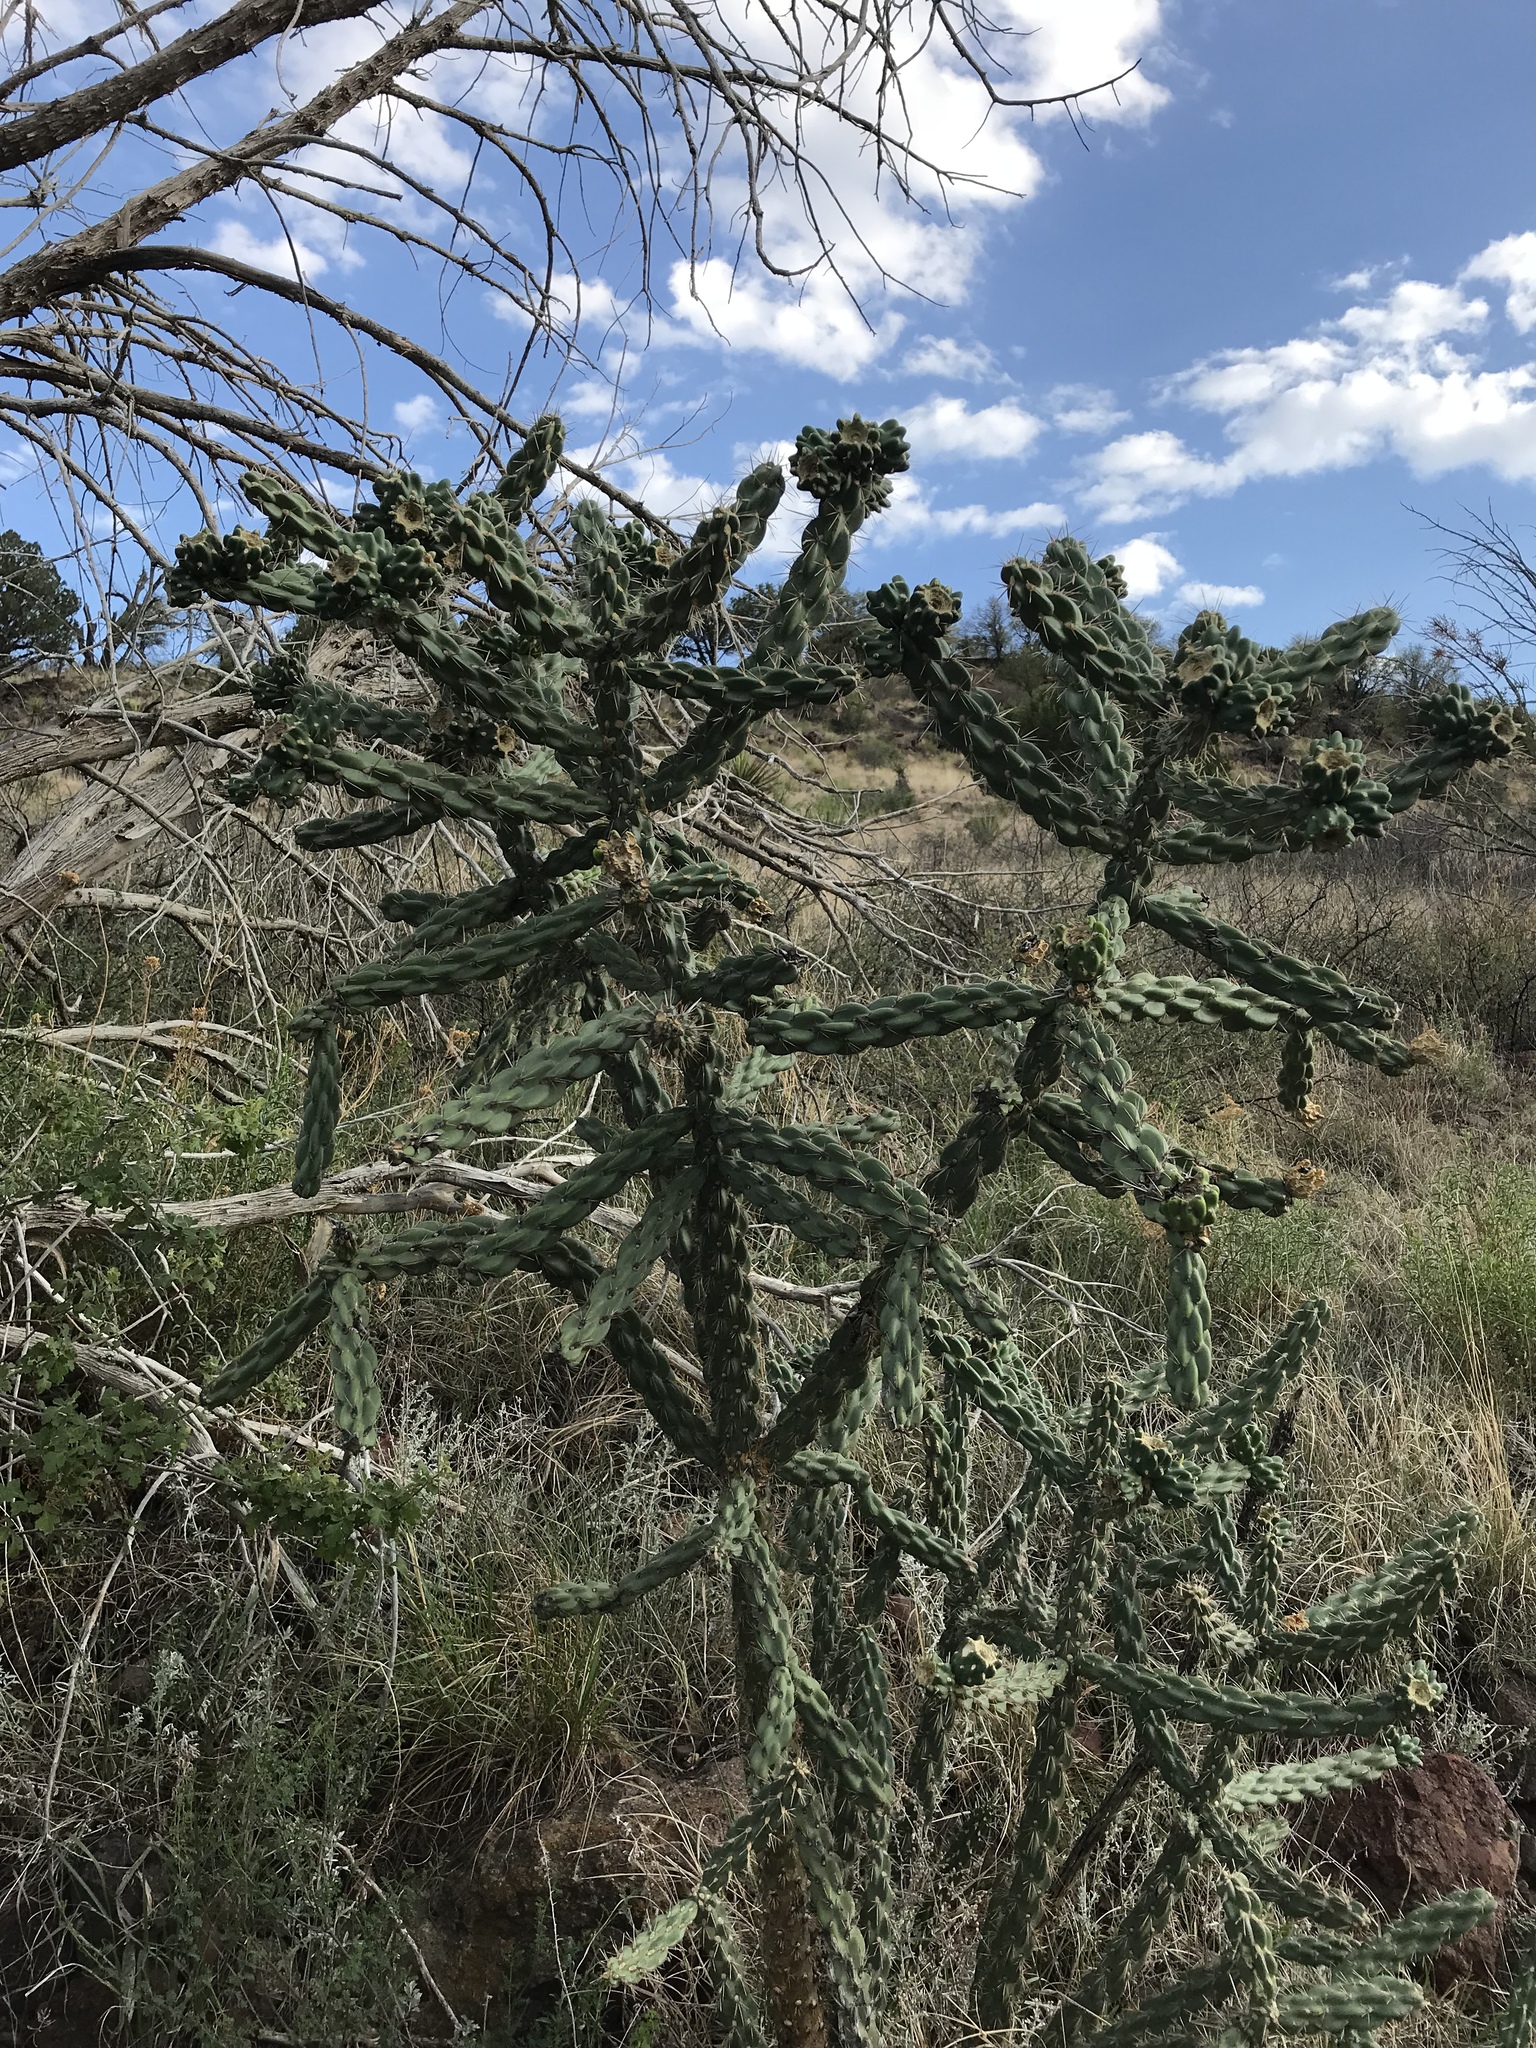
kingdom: Plantae
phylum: Tracheophyta
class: Magnoliopsida
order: Caryophyllales
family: Cactaceae
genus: Cylindropuntia
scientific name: Cylindropuntia imbricata
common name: Candelabrum cactus
